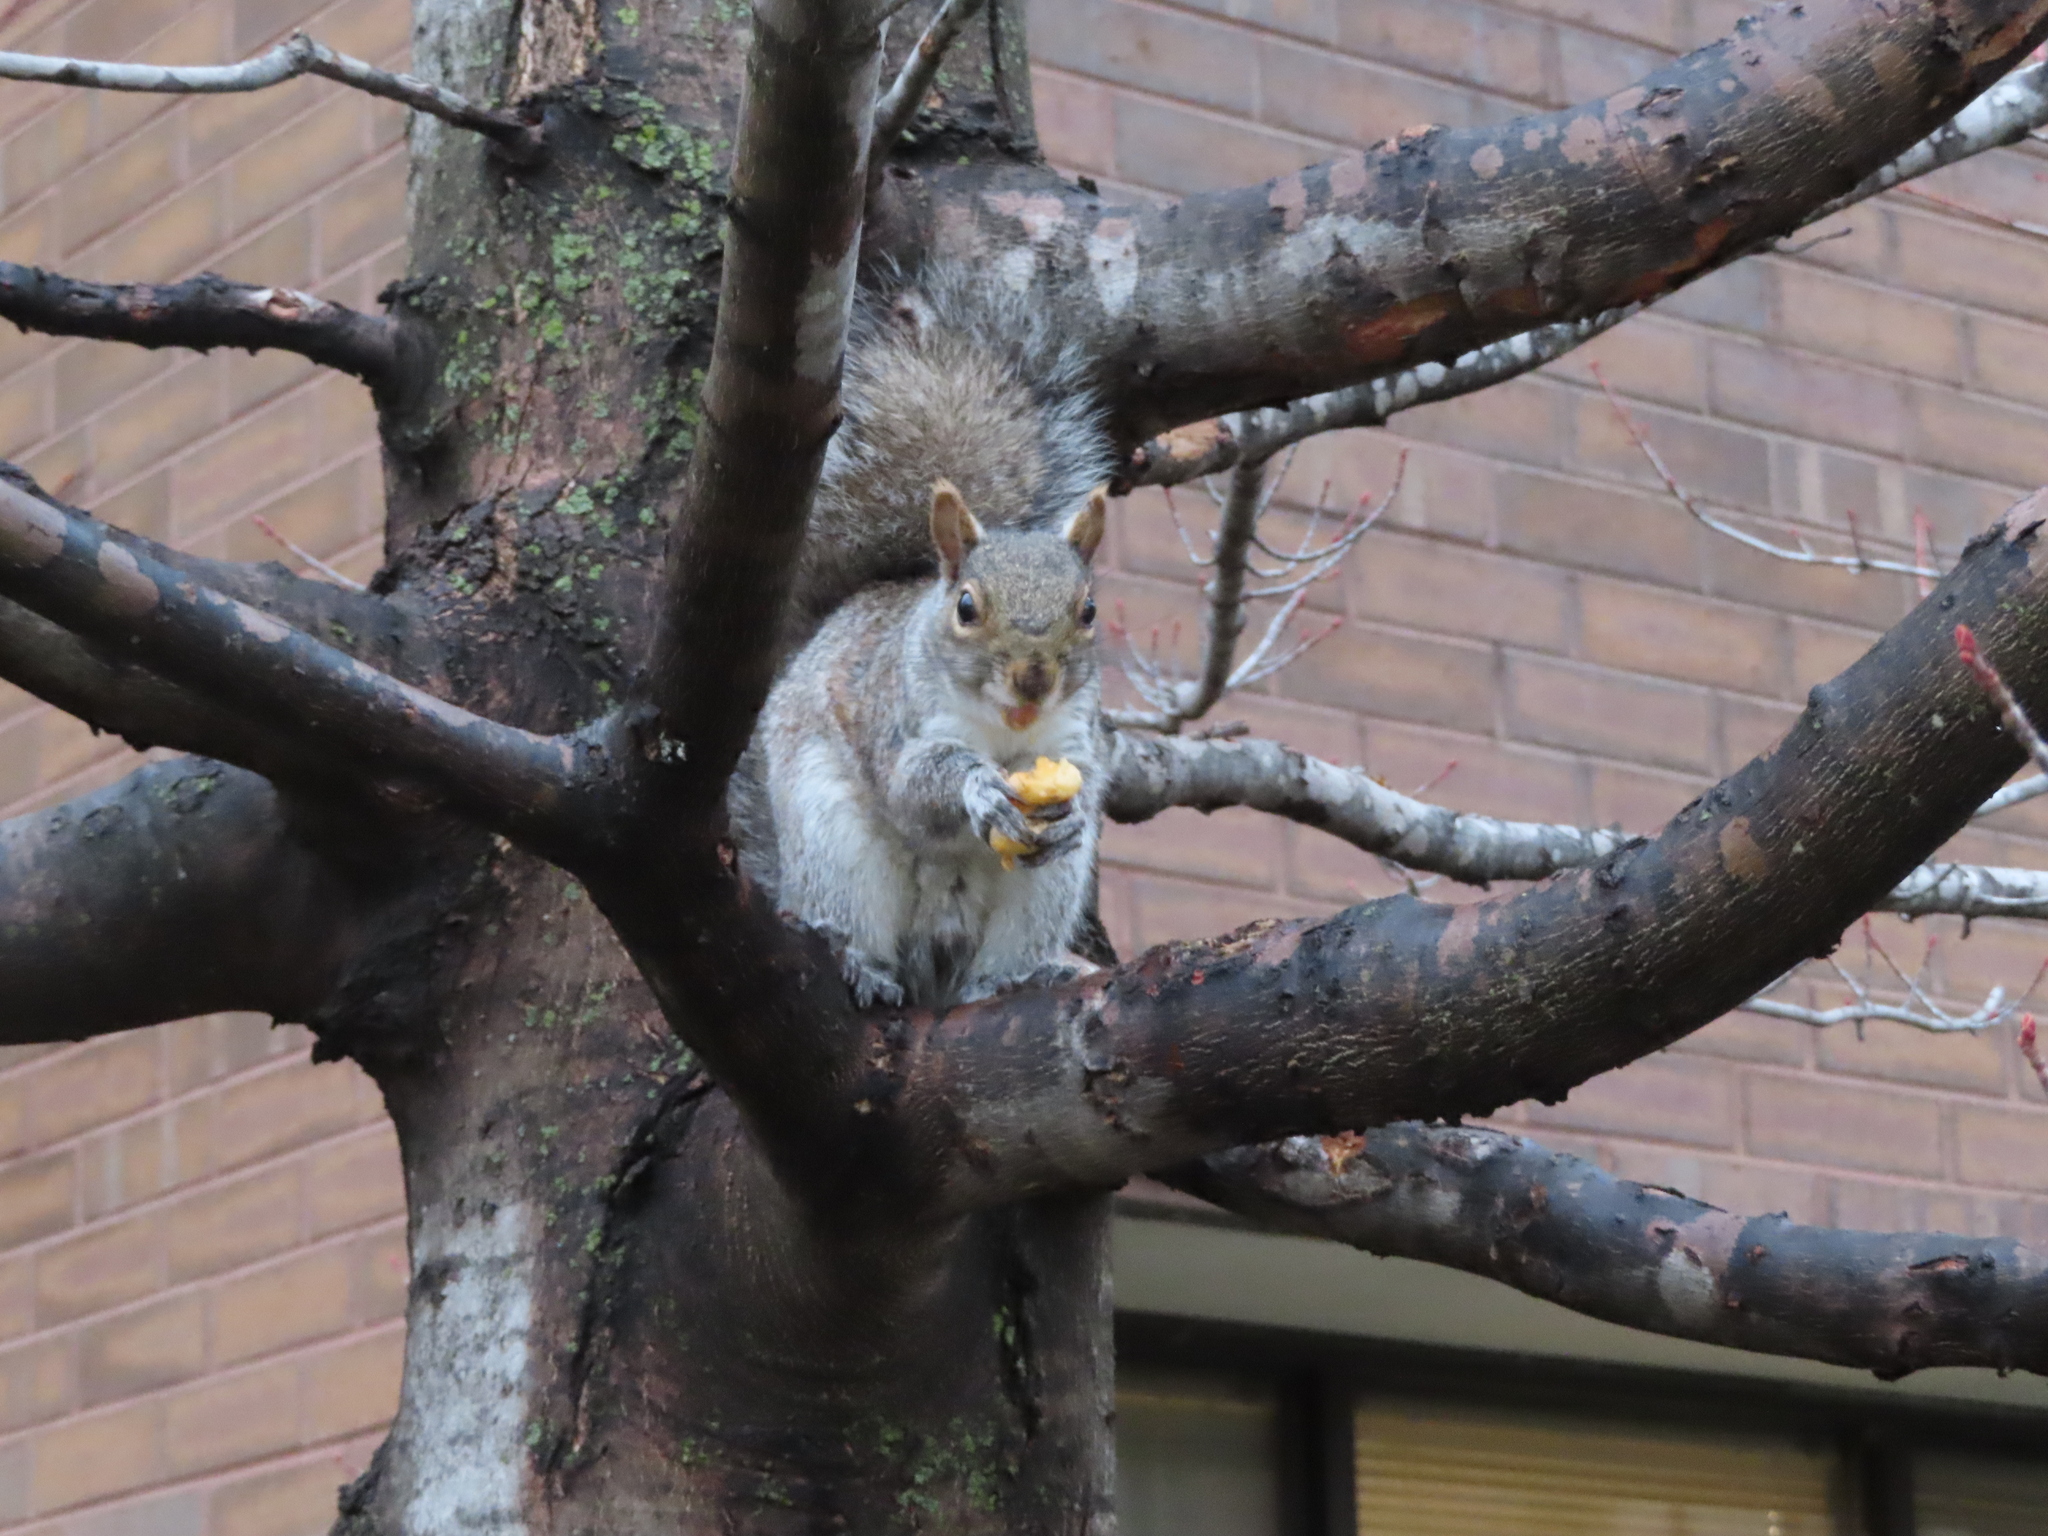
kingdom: Animalia
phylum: Chordata
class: Mammalia
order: Rodentia
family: Sciuridae
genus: Sciurus
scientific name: Sciurus carolinensis
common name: Eastern gray squirrel
